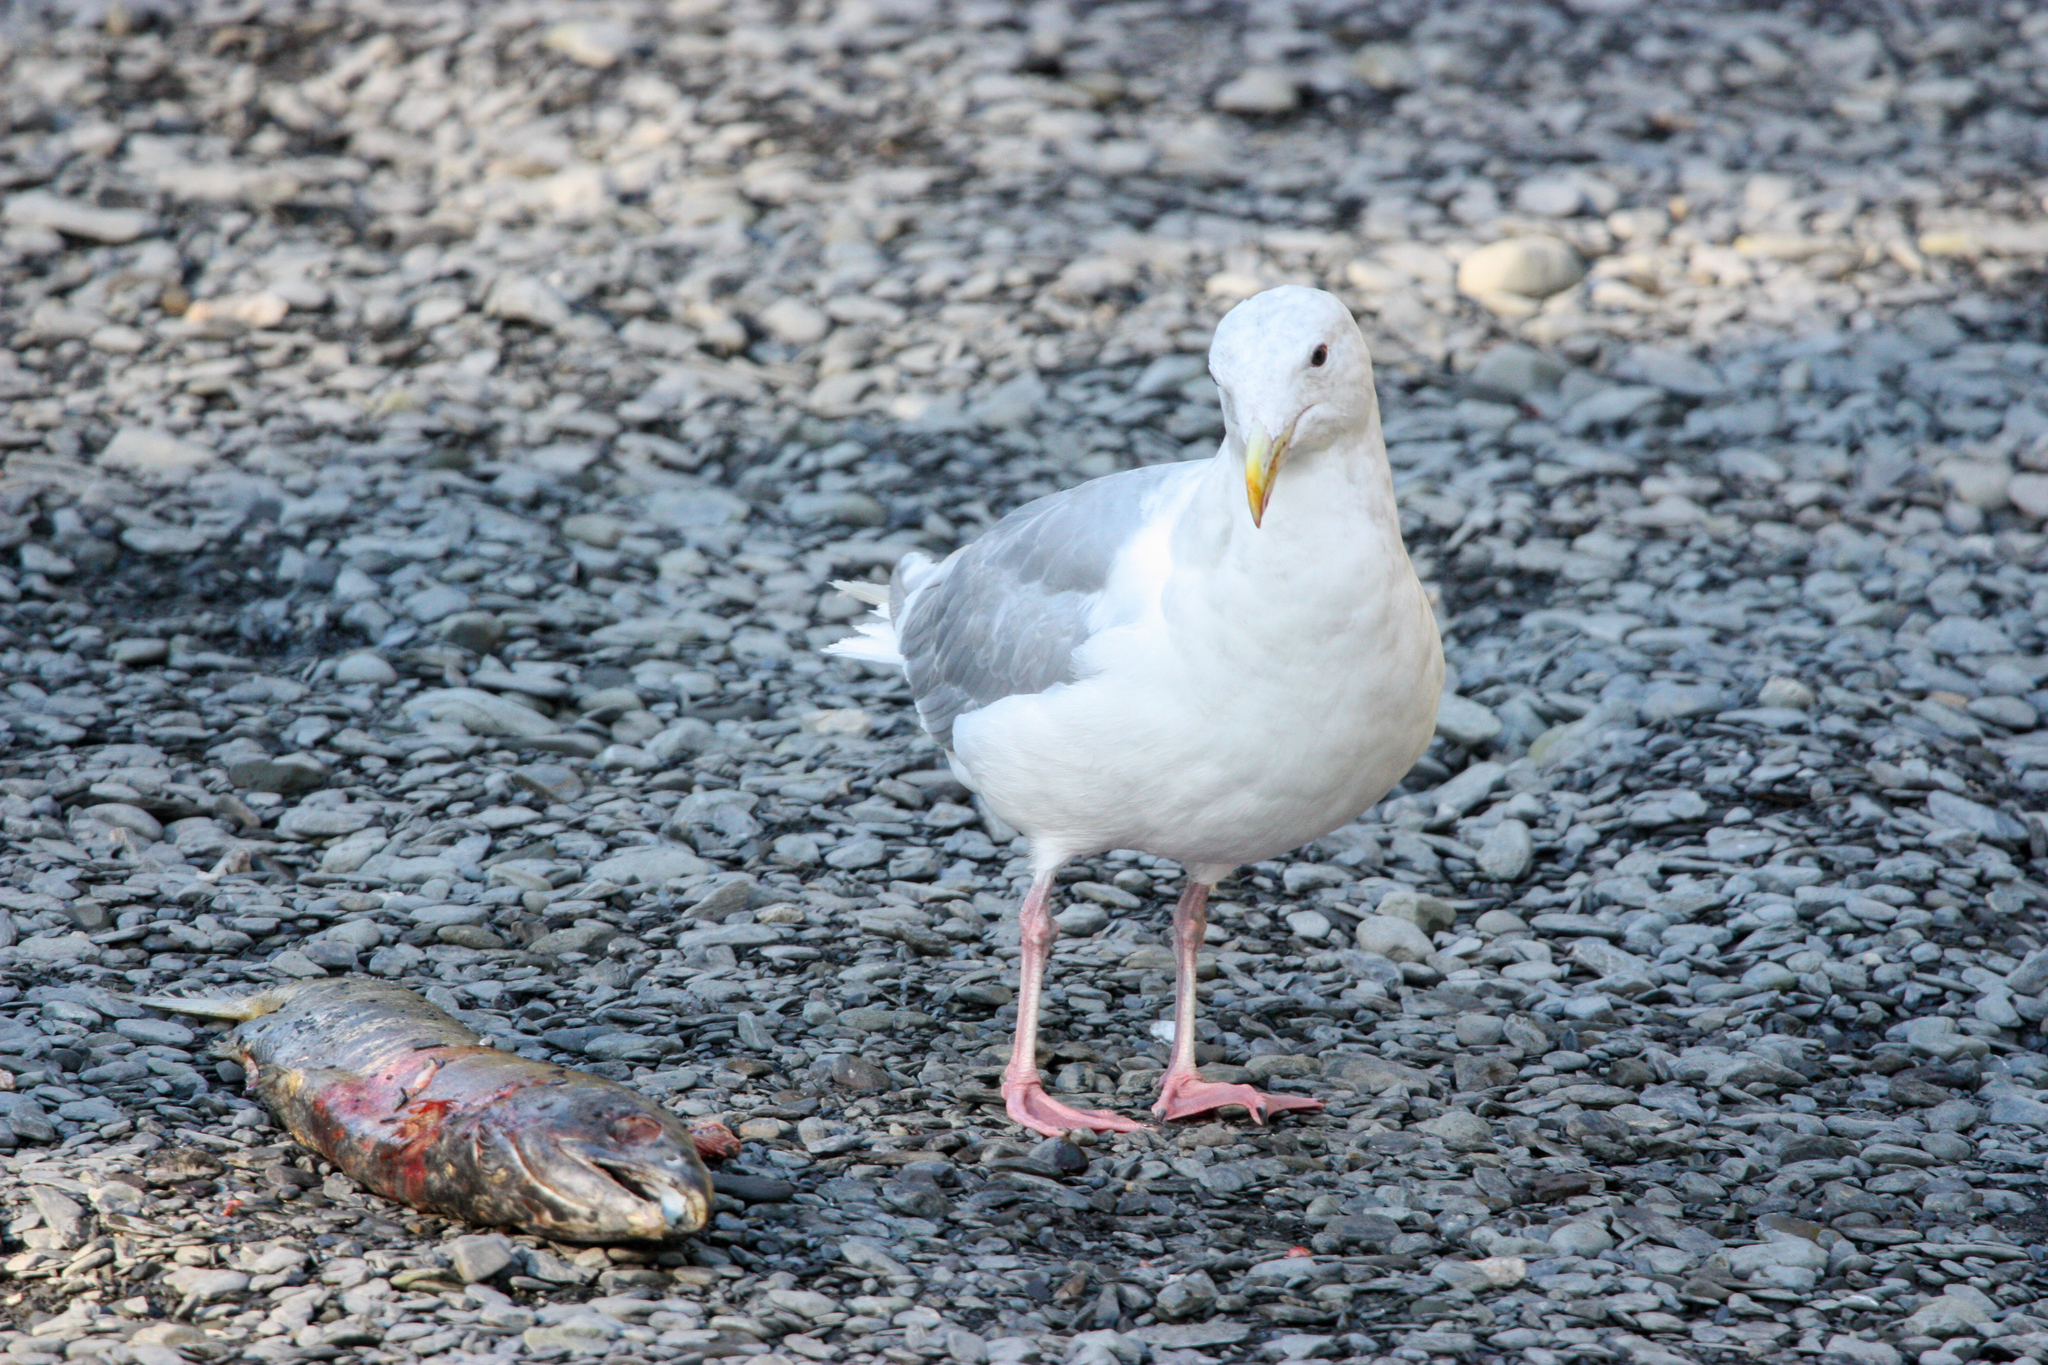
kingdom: Animalia
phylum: Chordata
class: Aves
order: Charadriiformes
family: Laridae
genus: Larus
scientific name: Larus glaucescens
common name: Glaucous-winged gull
